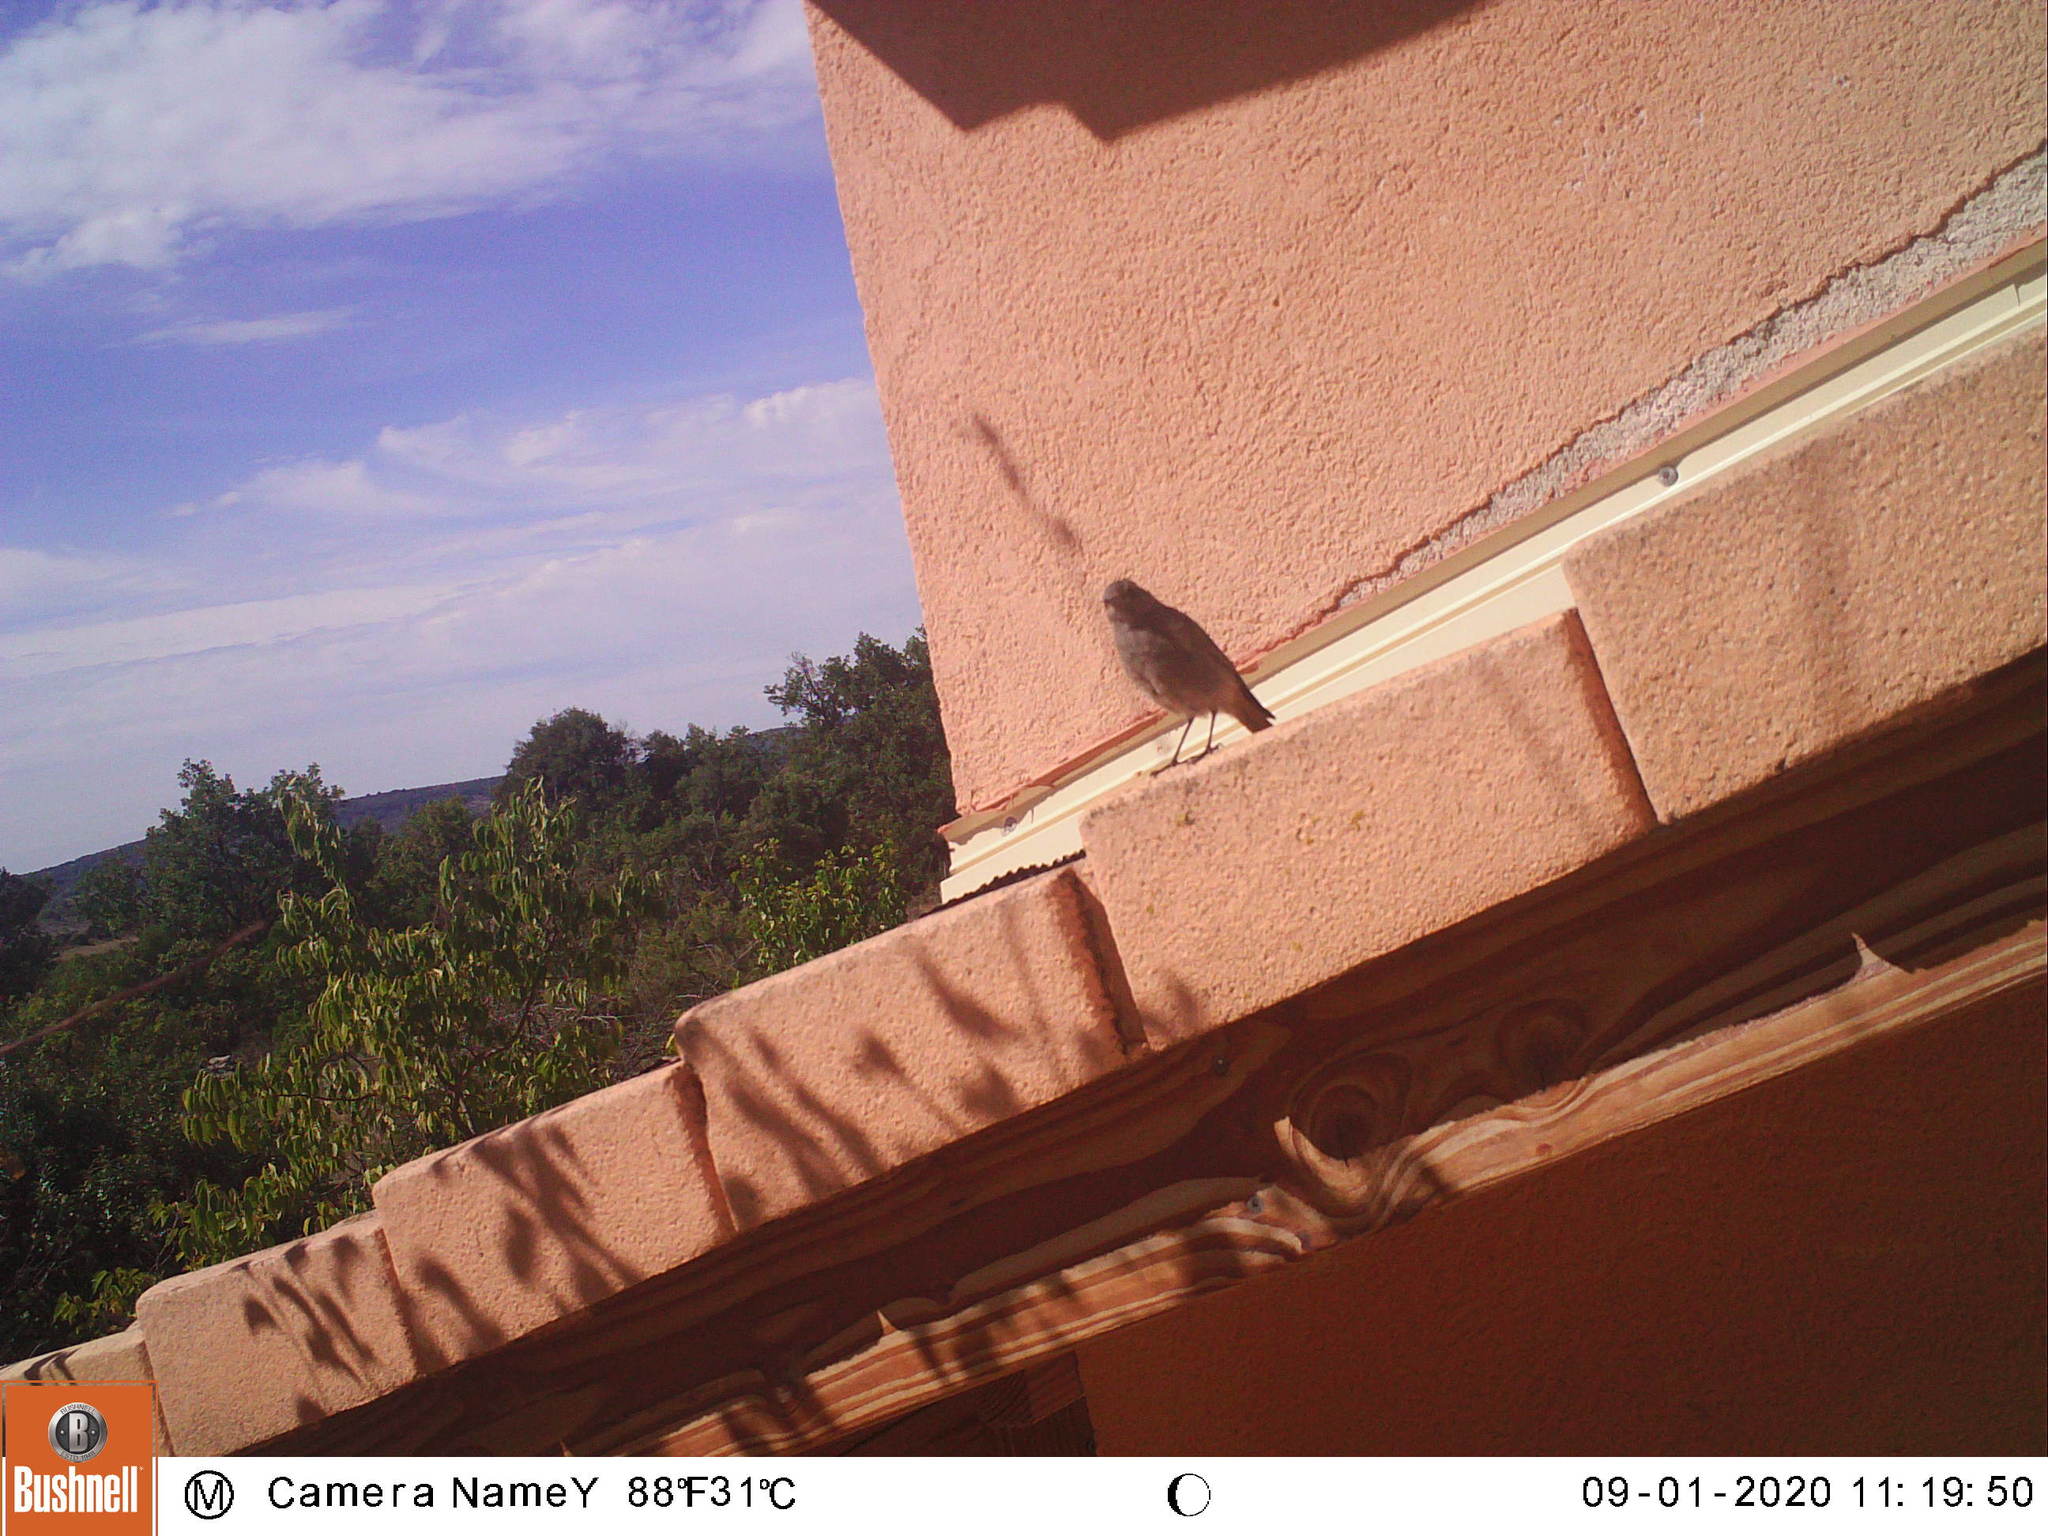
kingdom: Animalia
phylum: Chordata
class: Aves
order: Passeriformes
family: Muscicapidae
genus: Phoenicurus
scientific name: Phoenicurus ochruros
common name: Black redstart
